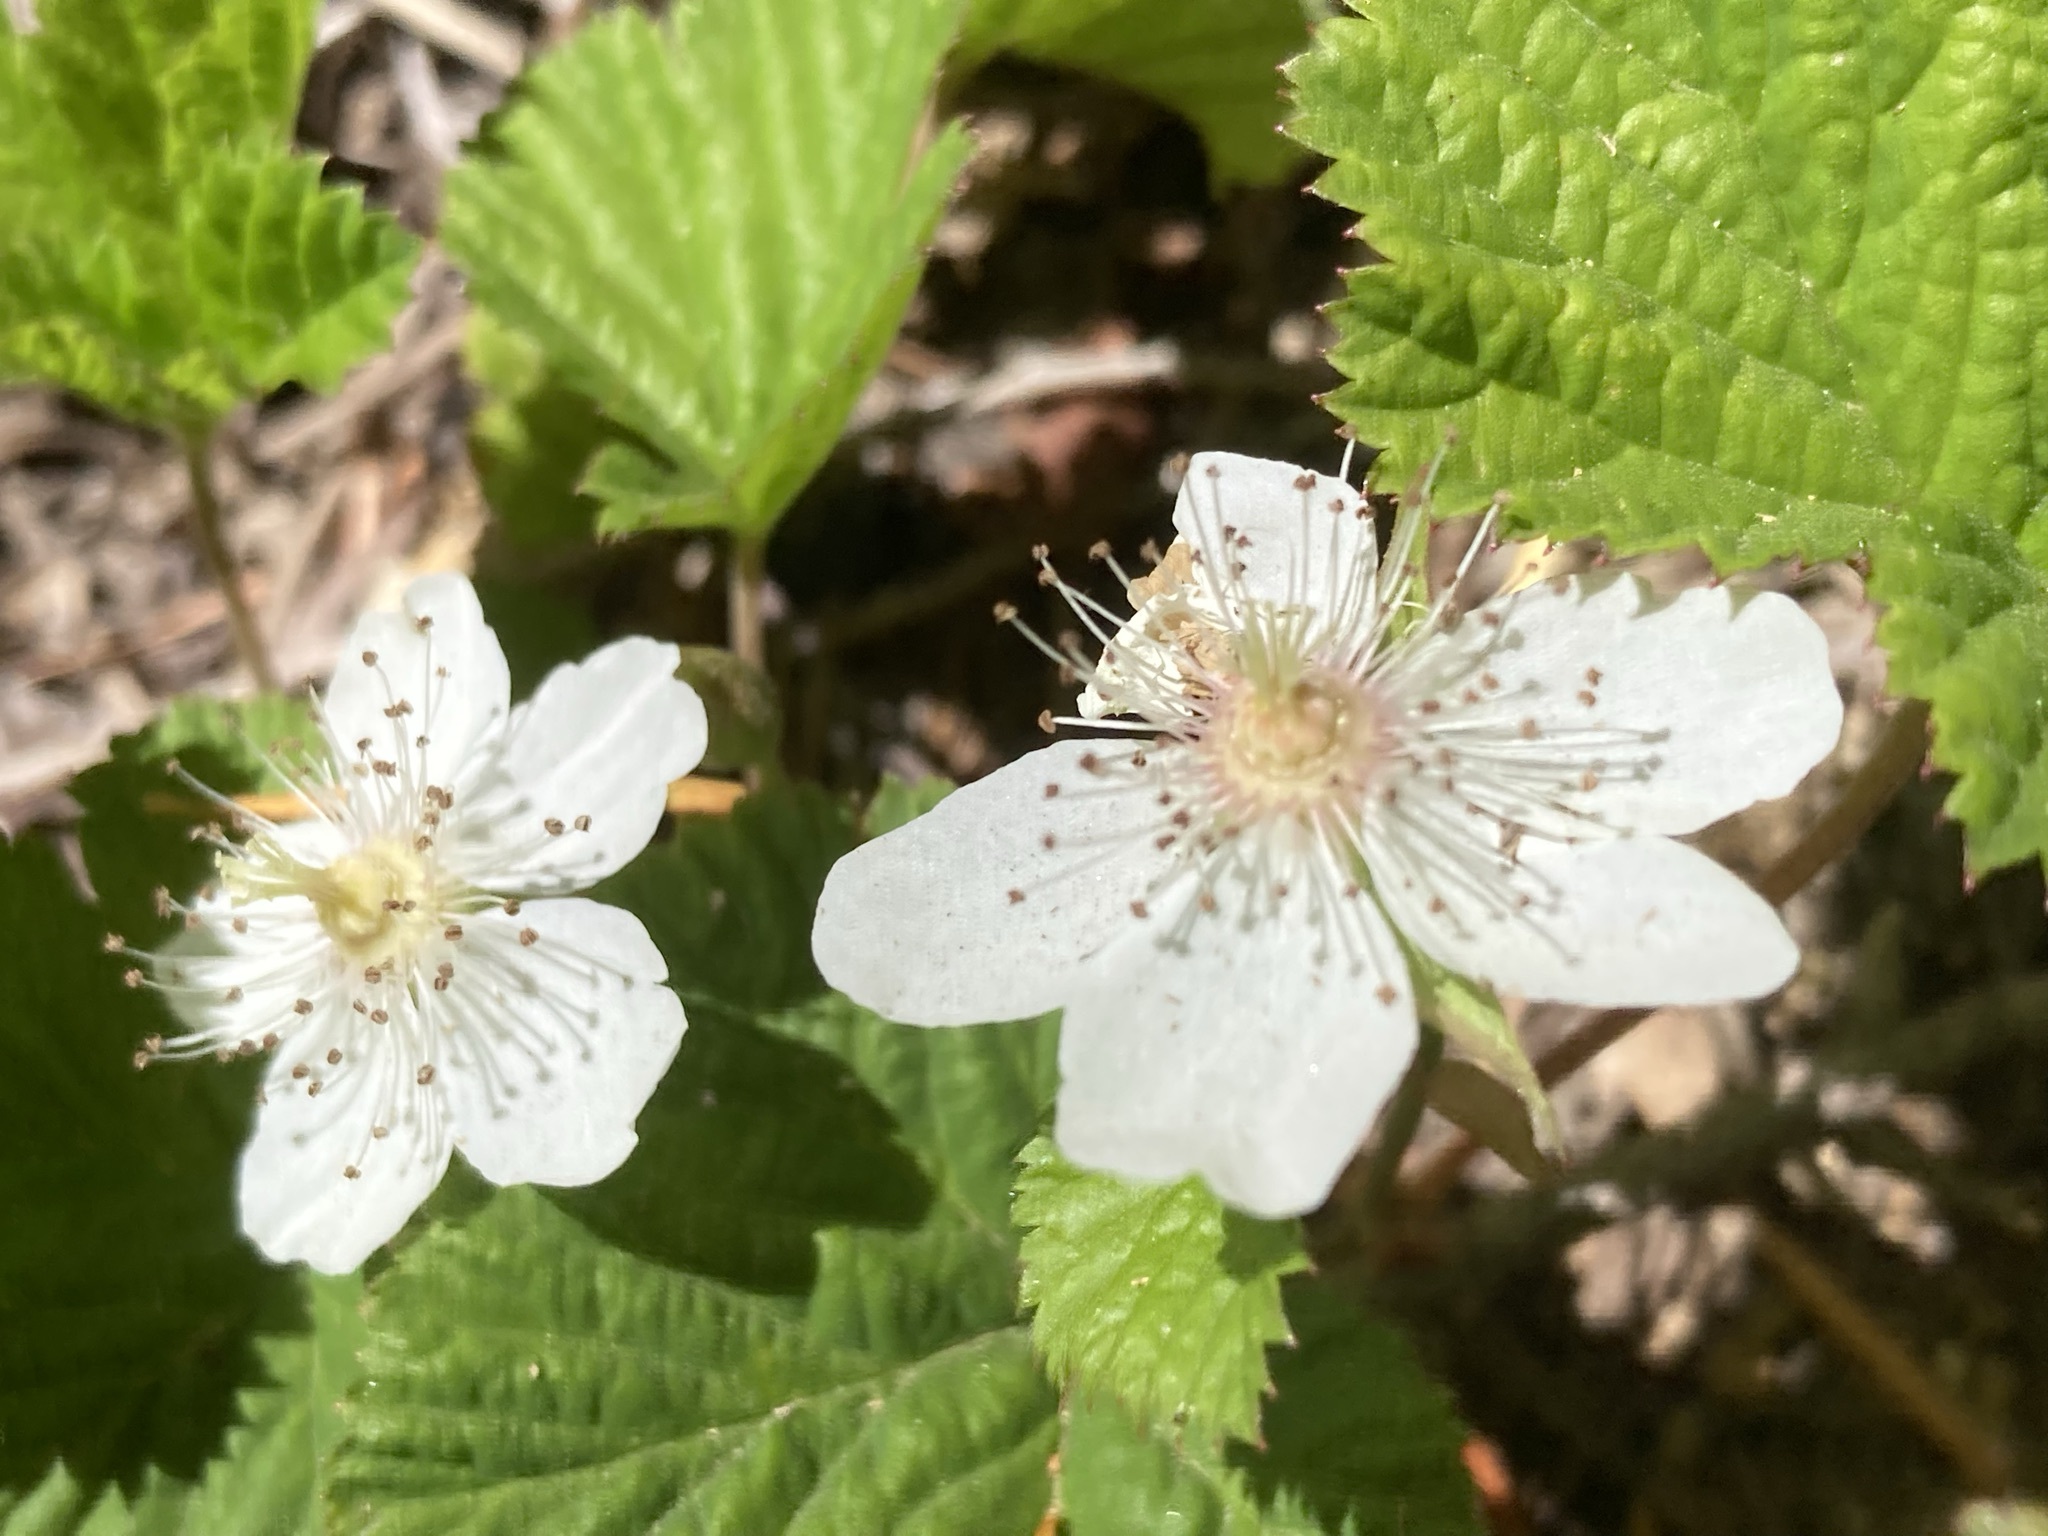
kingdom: Plantae
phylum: Tracheophyta
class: Magnoliopsida
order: Rosales
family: Rosaceae
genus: Rubus
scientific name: Rubus ursinus
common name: Pacific blackberry
